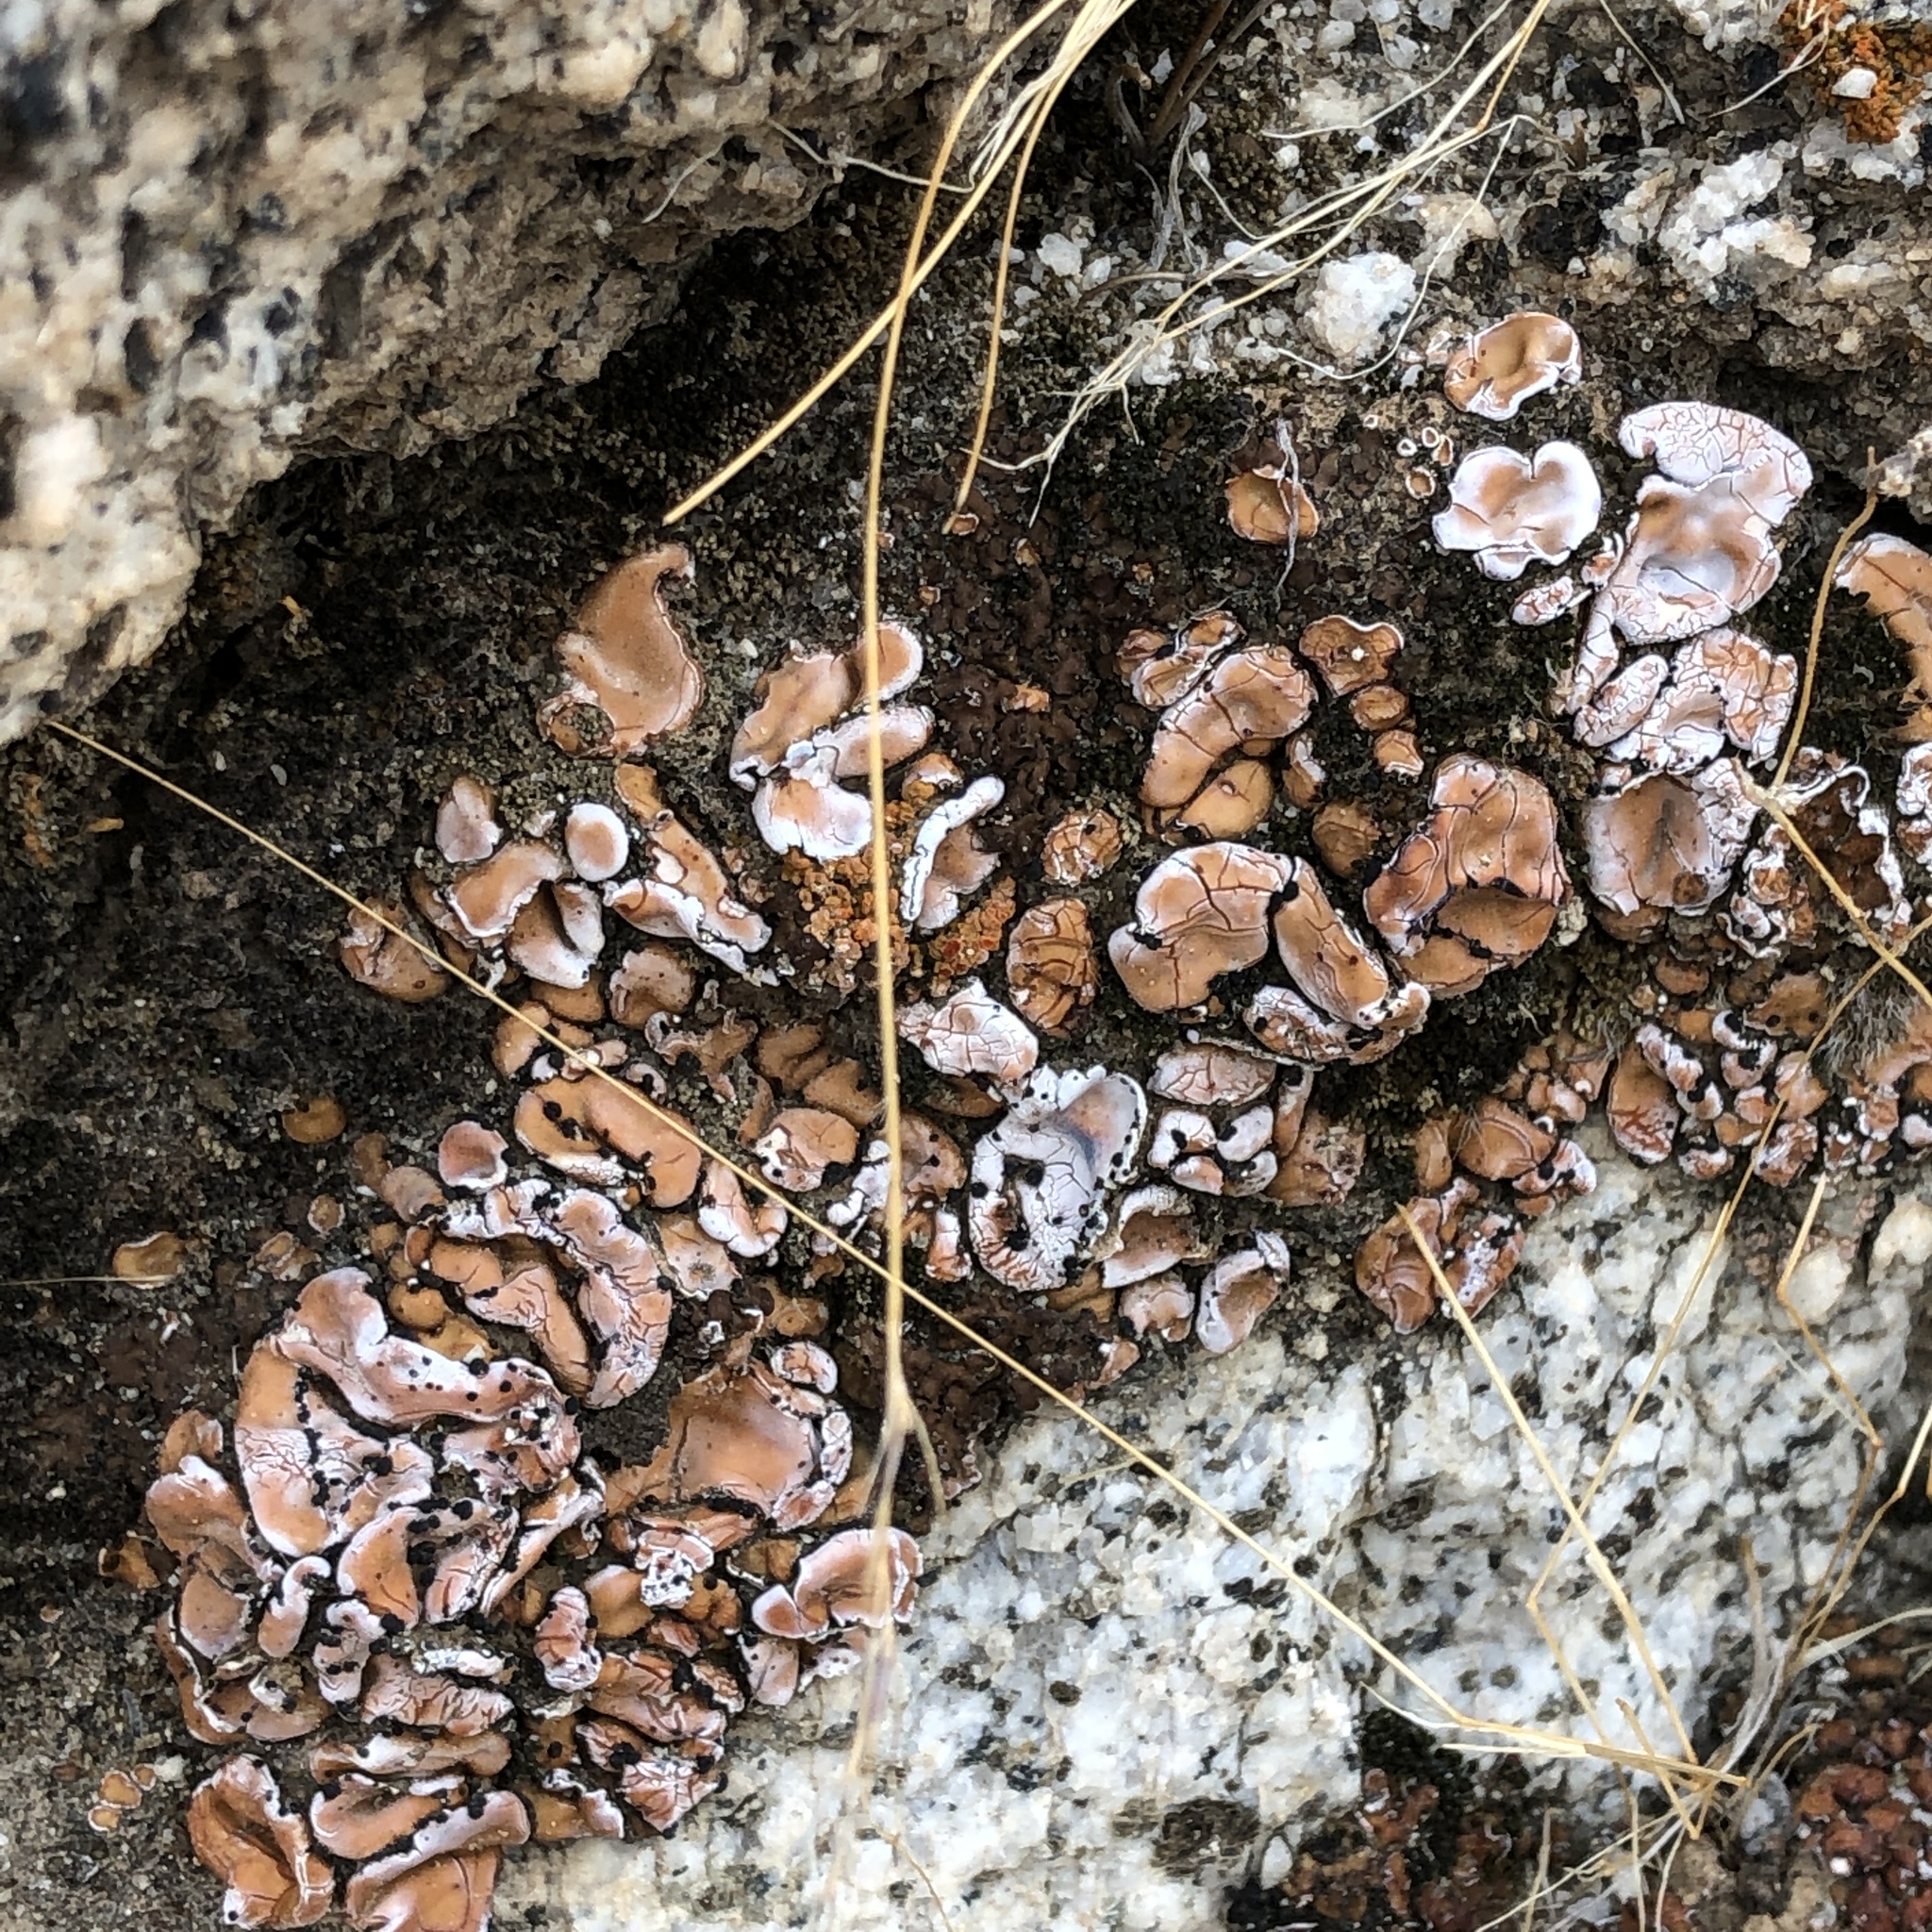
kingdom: Fungi
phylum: Ascomycota
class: Lecanoromycetes
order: Lecanorales
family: Psoraceae
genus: Psora
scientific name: Psora decipiens
